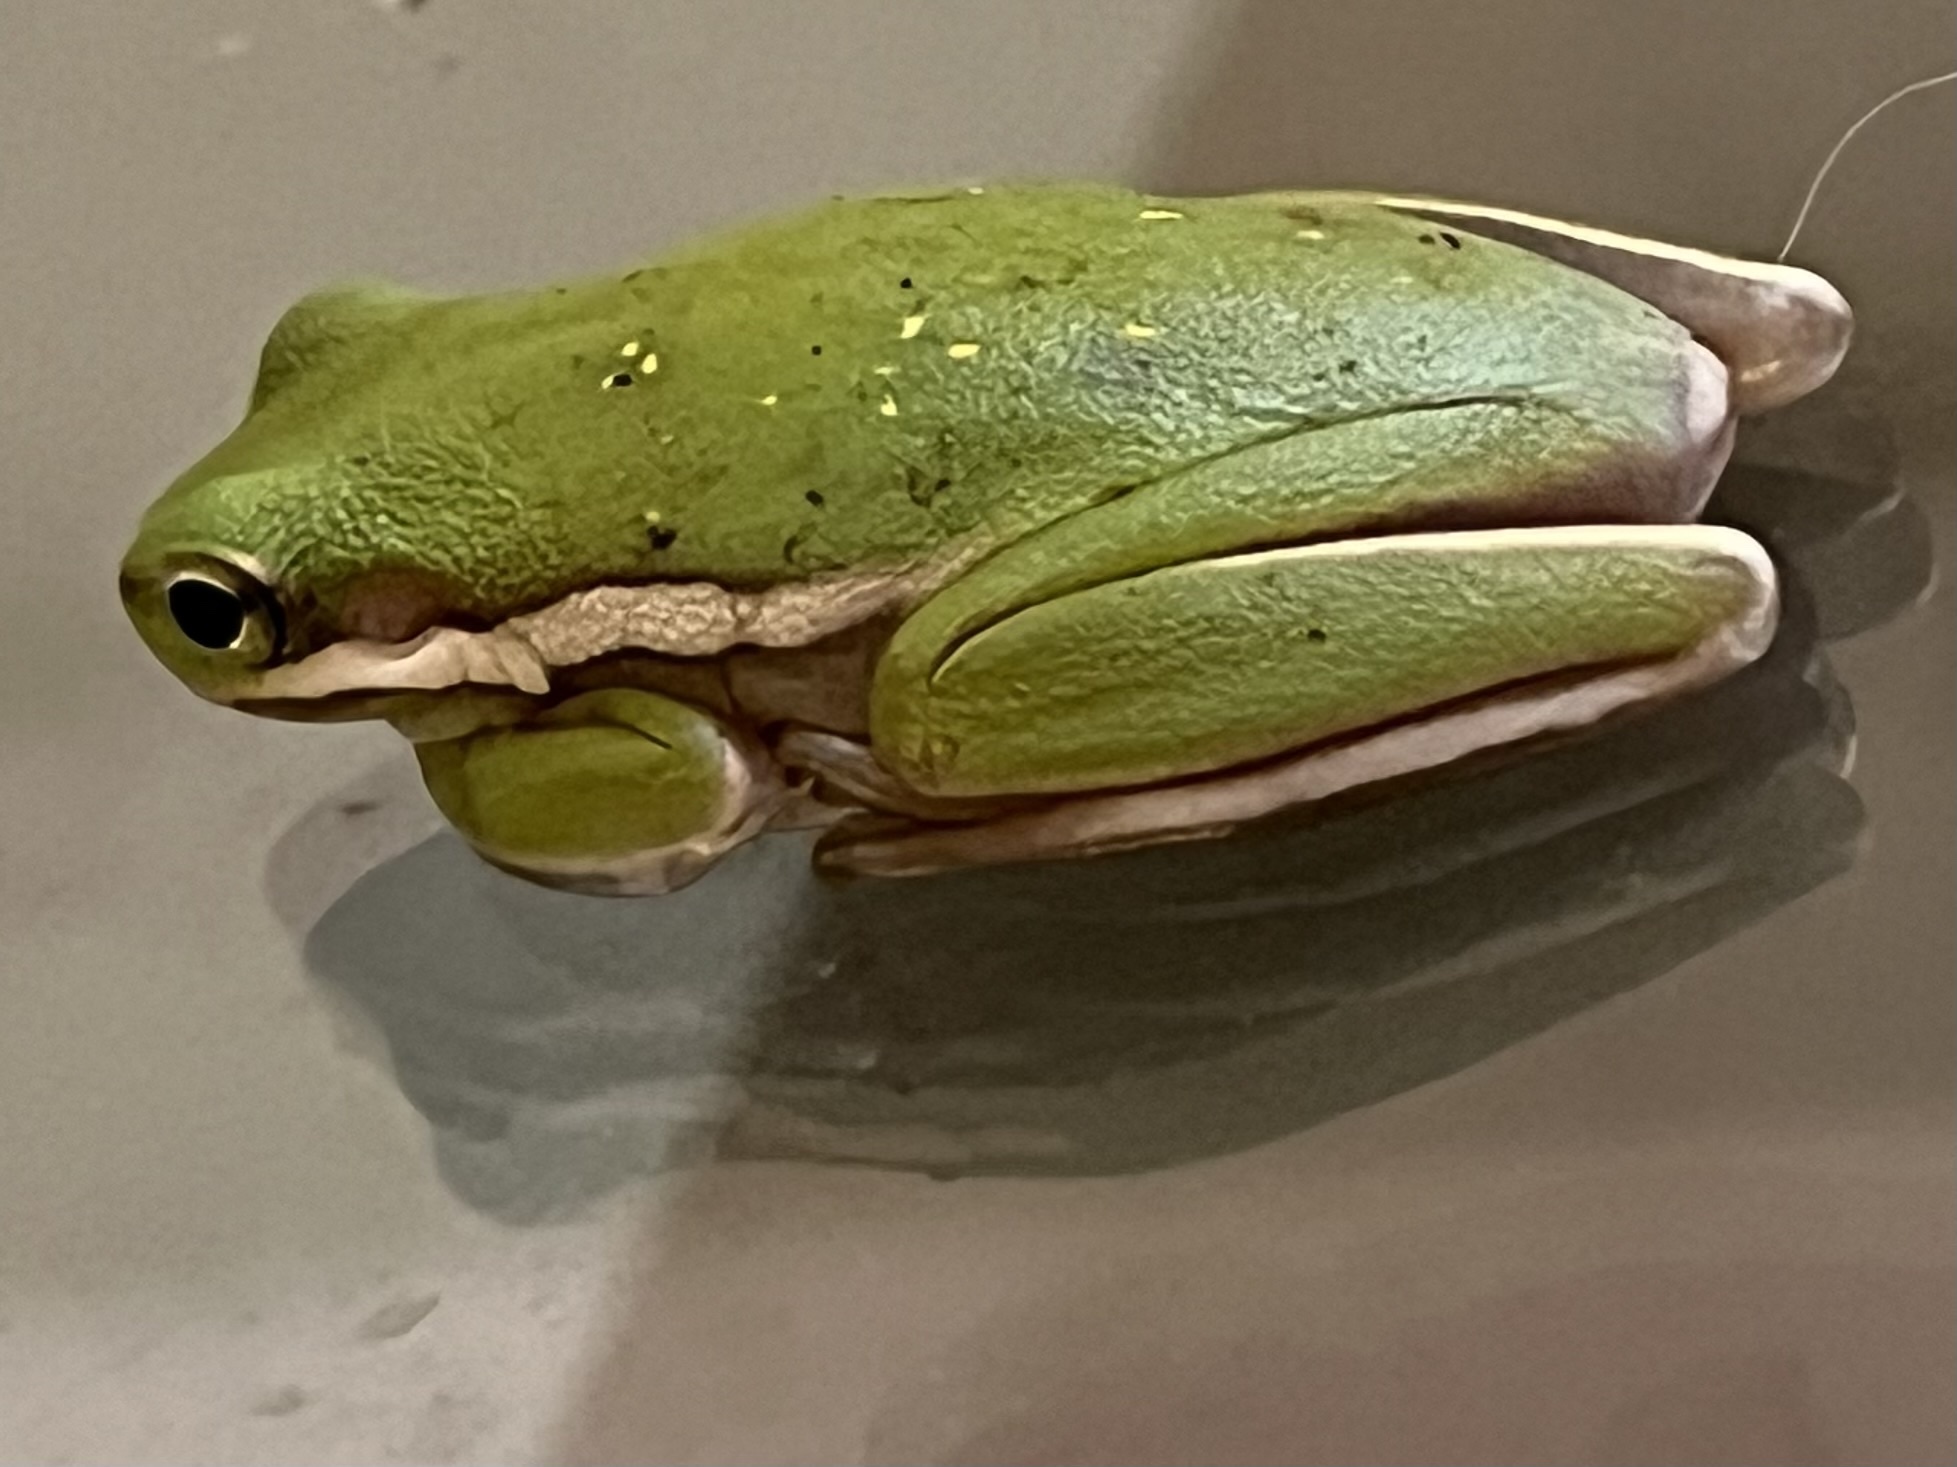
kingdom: Animalia
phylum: Chordata
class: Amphibia
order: Anura
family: Hylidae
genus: Dryophytes
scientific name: Dryophytes cinereus
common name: Green treefrog
